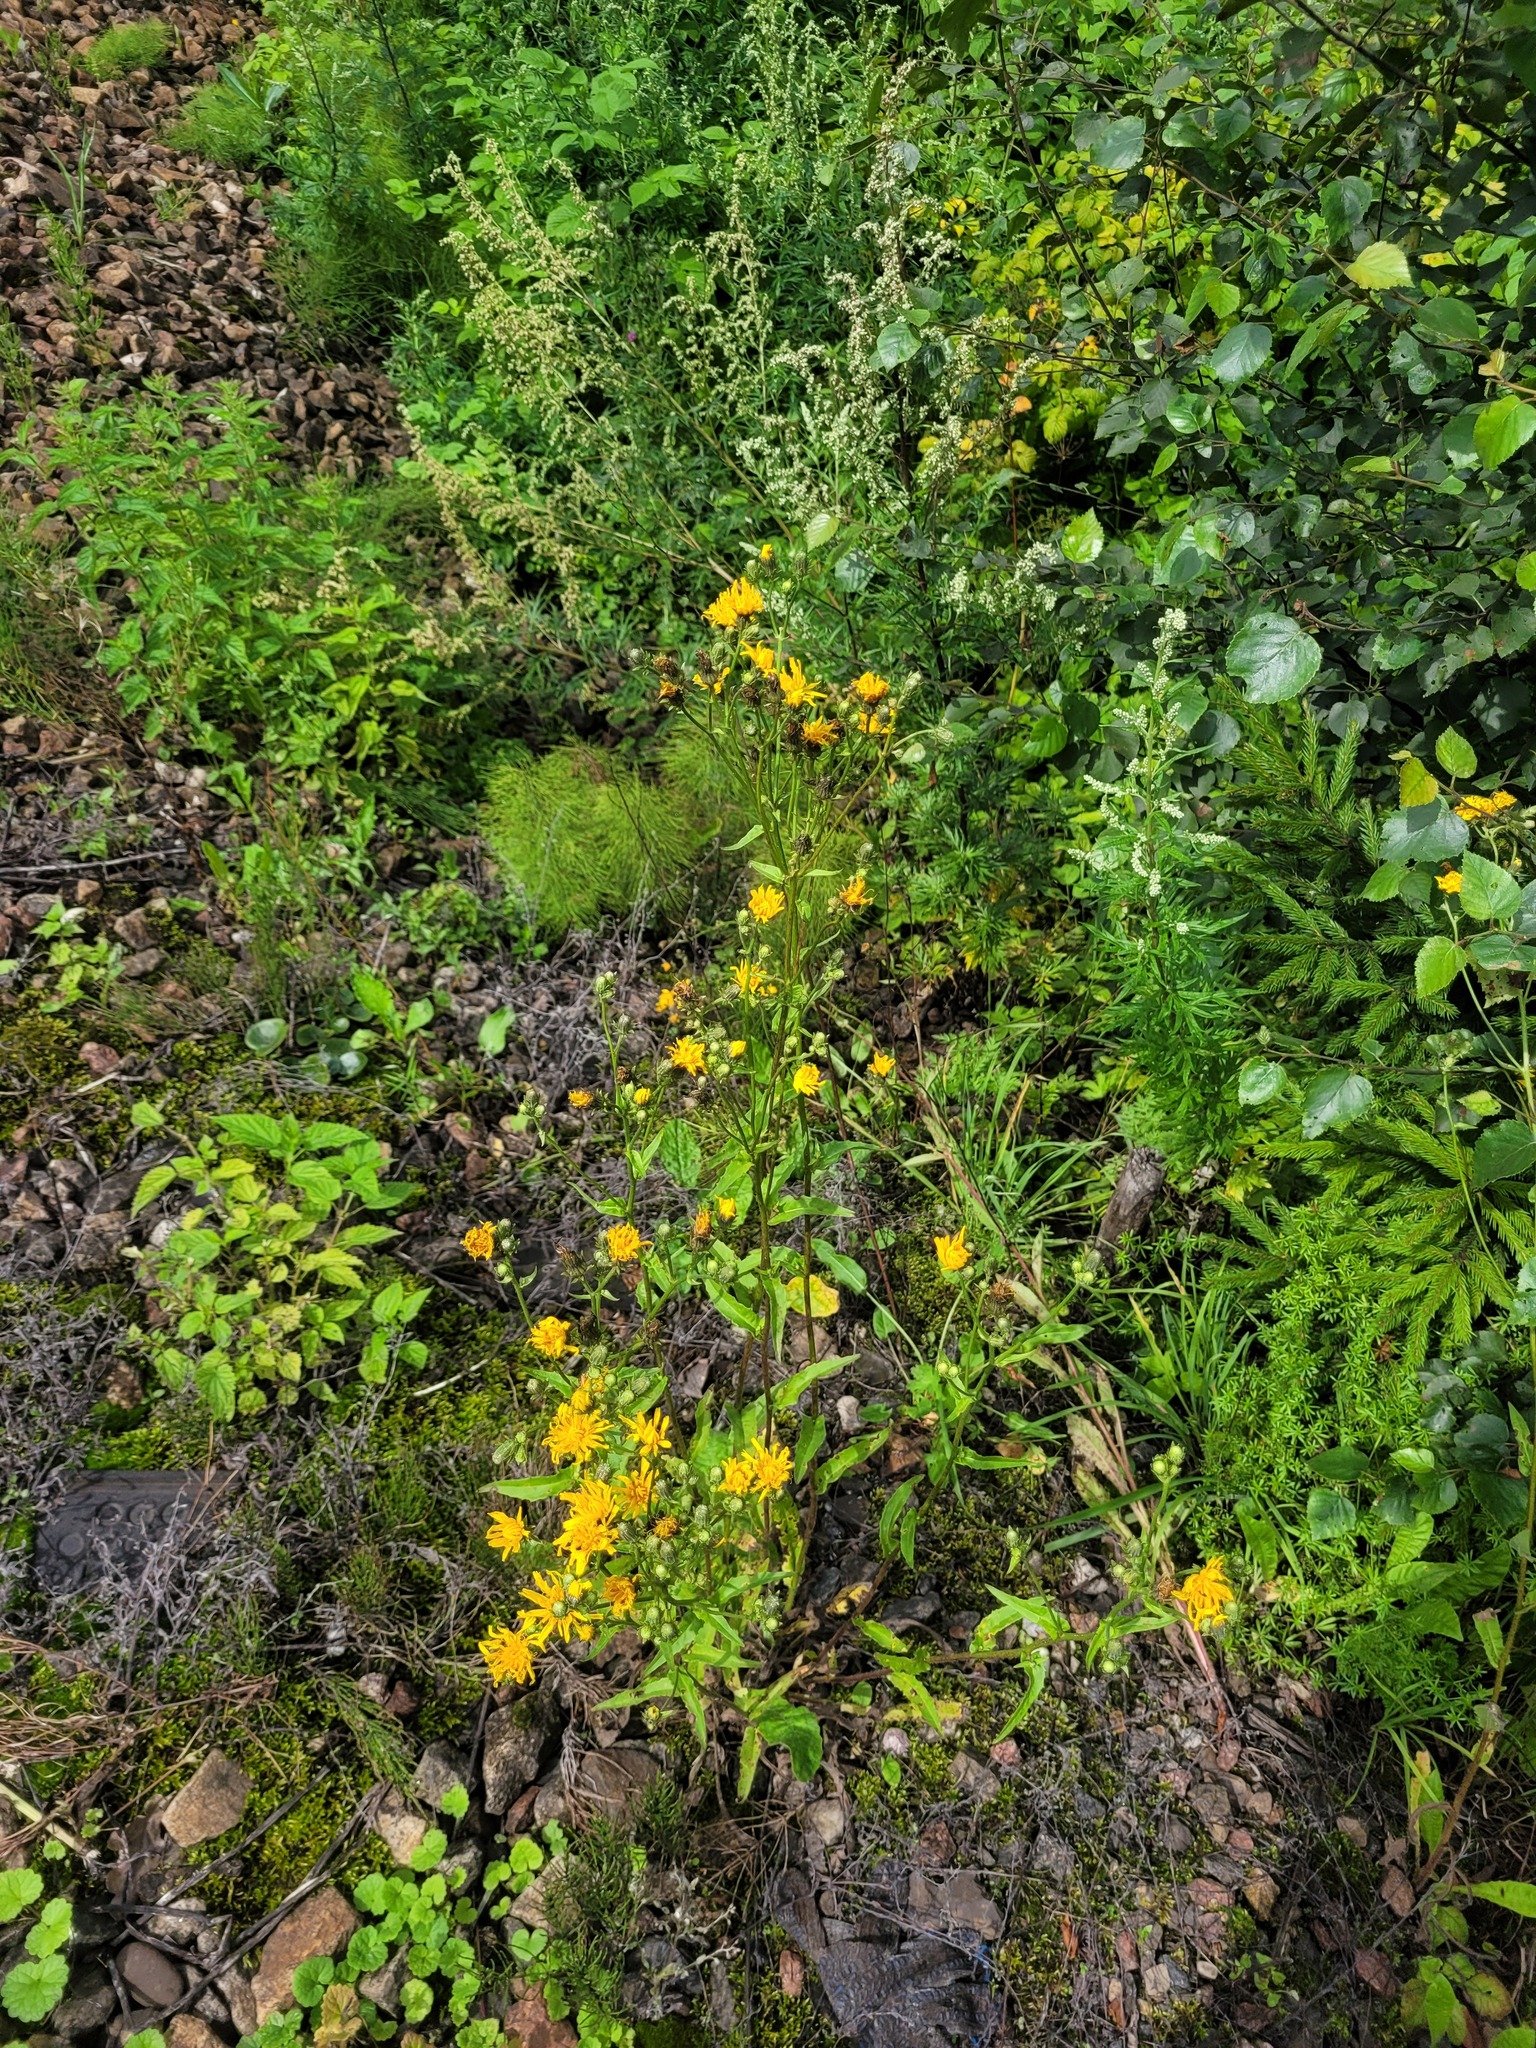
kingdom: Plantae
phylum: Tracheophyta
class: Magnoliopsida
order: Asterales
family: Asteraceae
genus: Picris
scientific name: Picris hieracioides
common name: Hawkweed oxtongue
